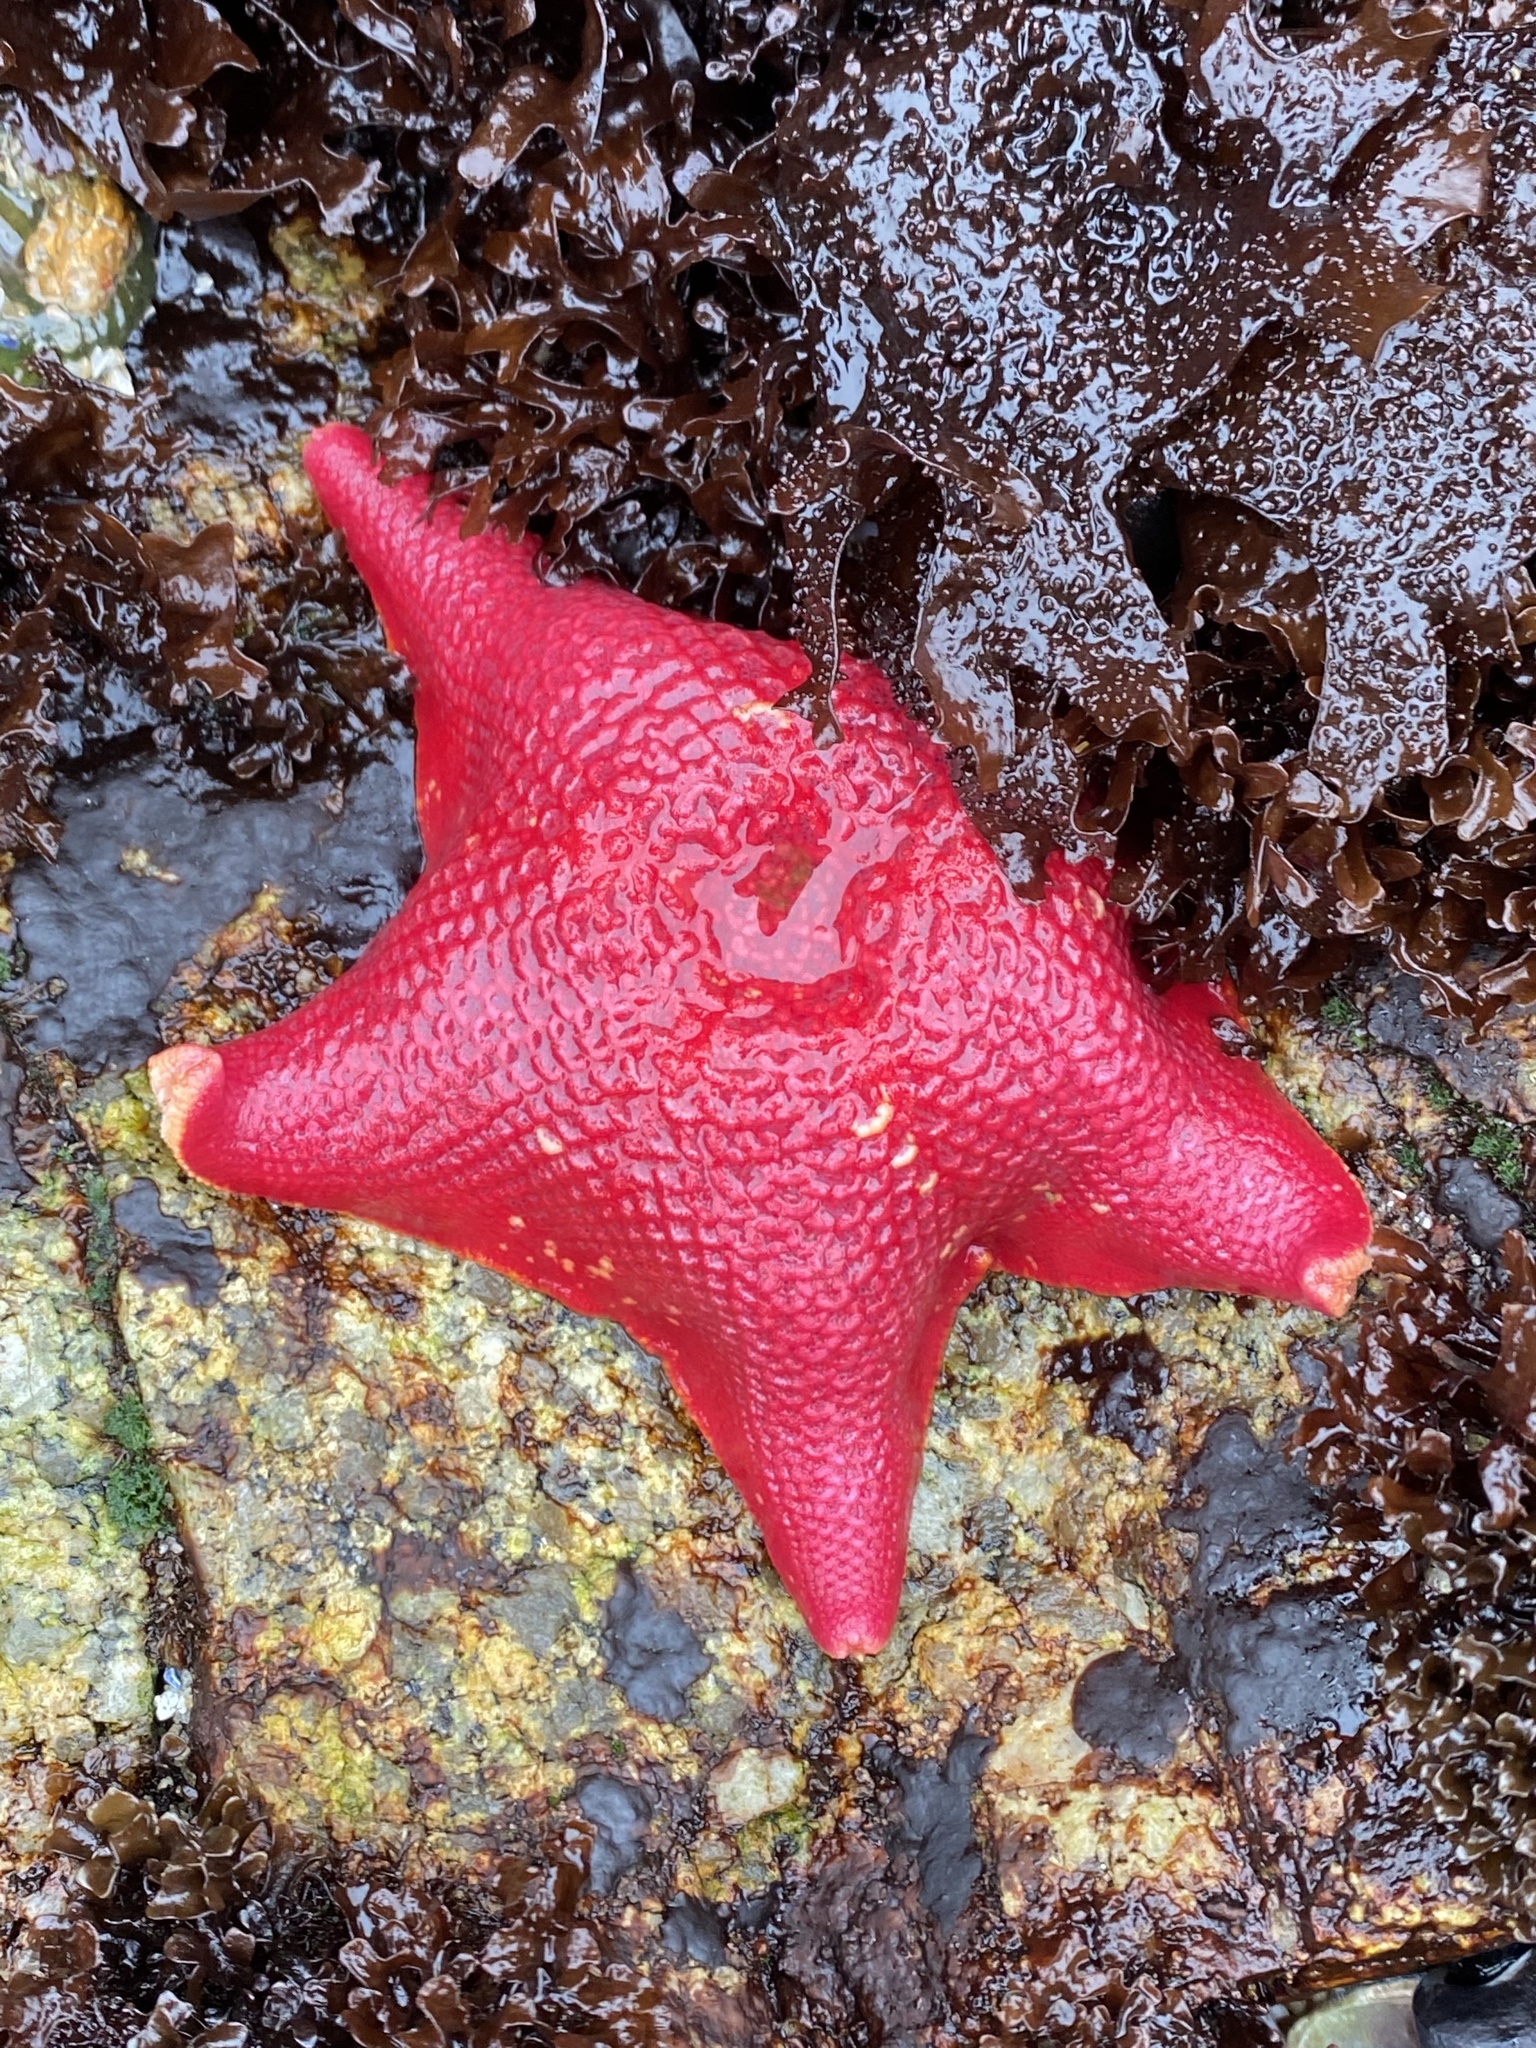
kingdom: Animalia
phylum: Echinodermata
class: Asteroidea
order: Valvatida
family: Asterinidae
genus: Patiria
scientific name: Patiria miniata
